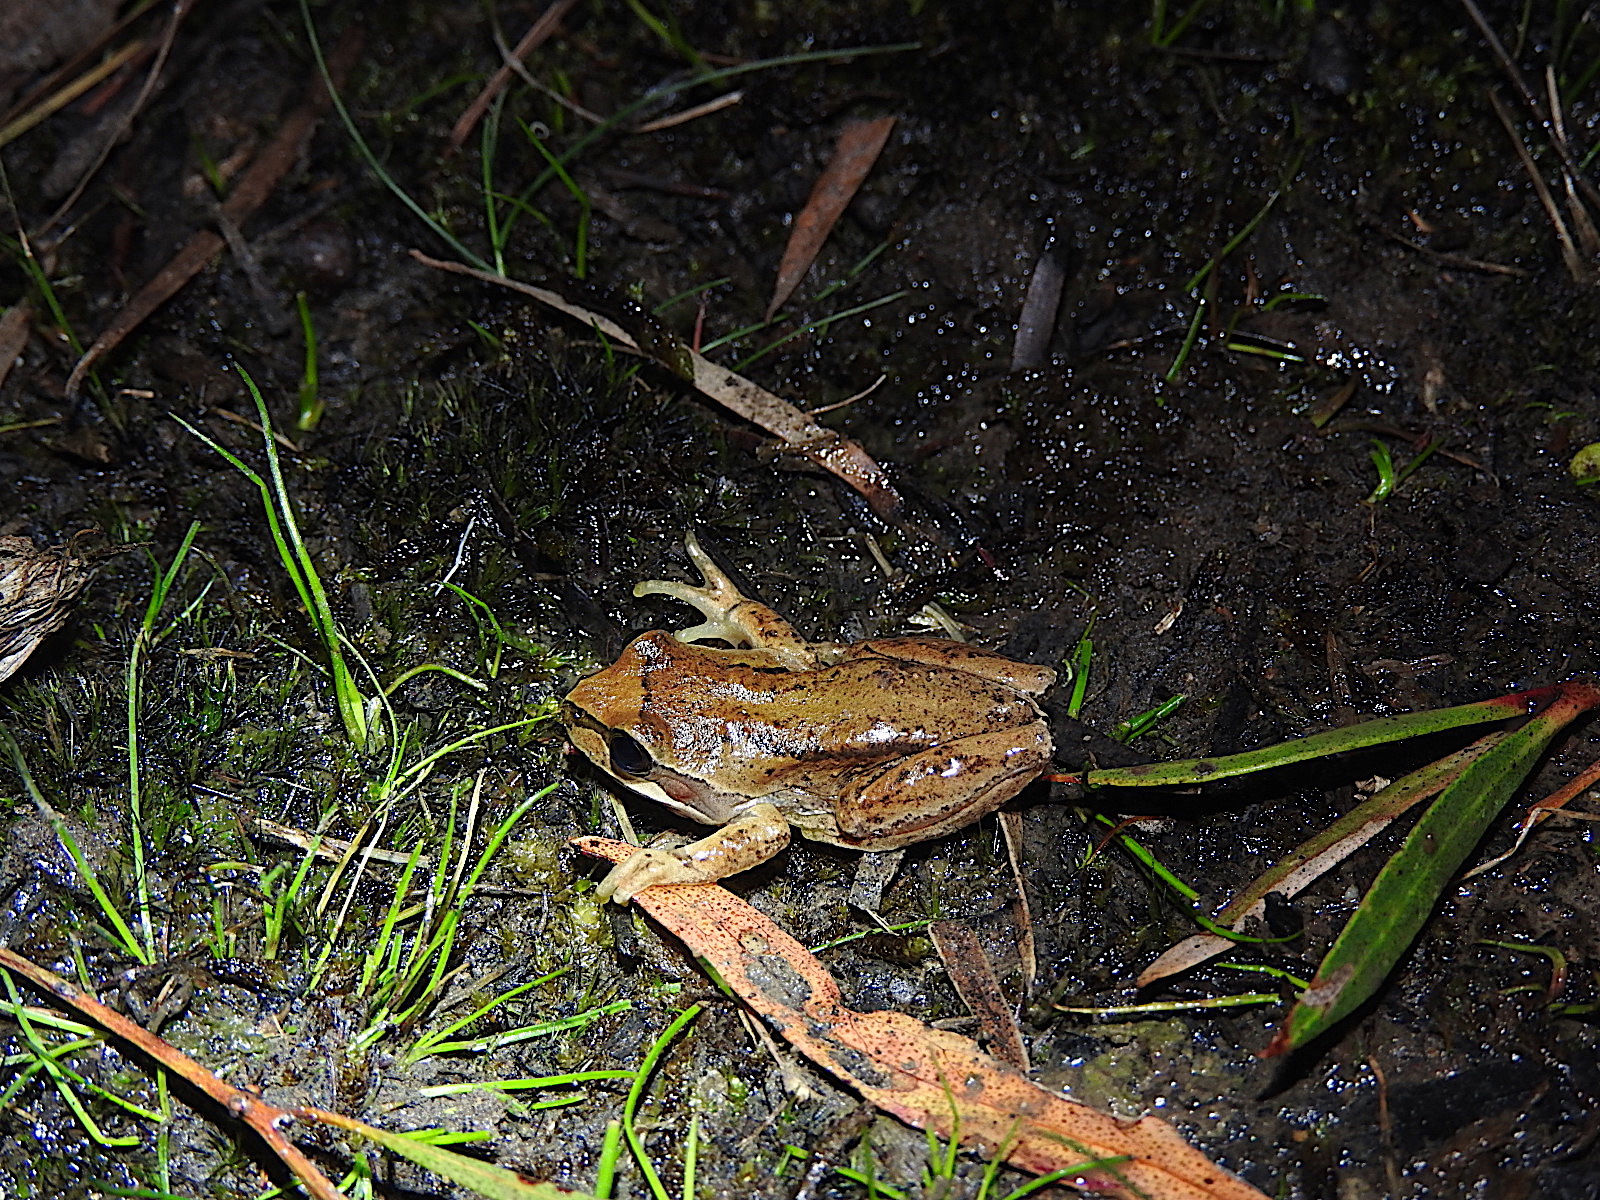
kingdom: Animalia
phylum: Chordata
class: Amphibia
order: Anura
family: Pelodryadidae
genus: Litoria
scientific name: Litoria ewingii
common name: Southern brown tree frog
